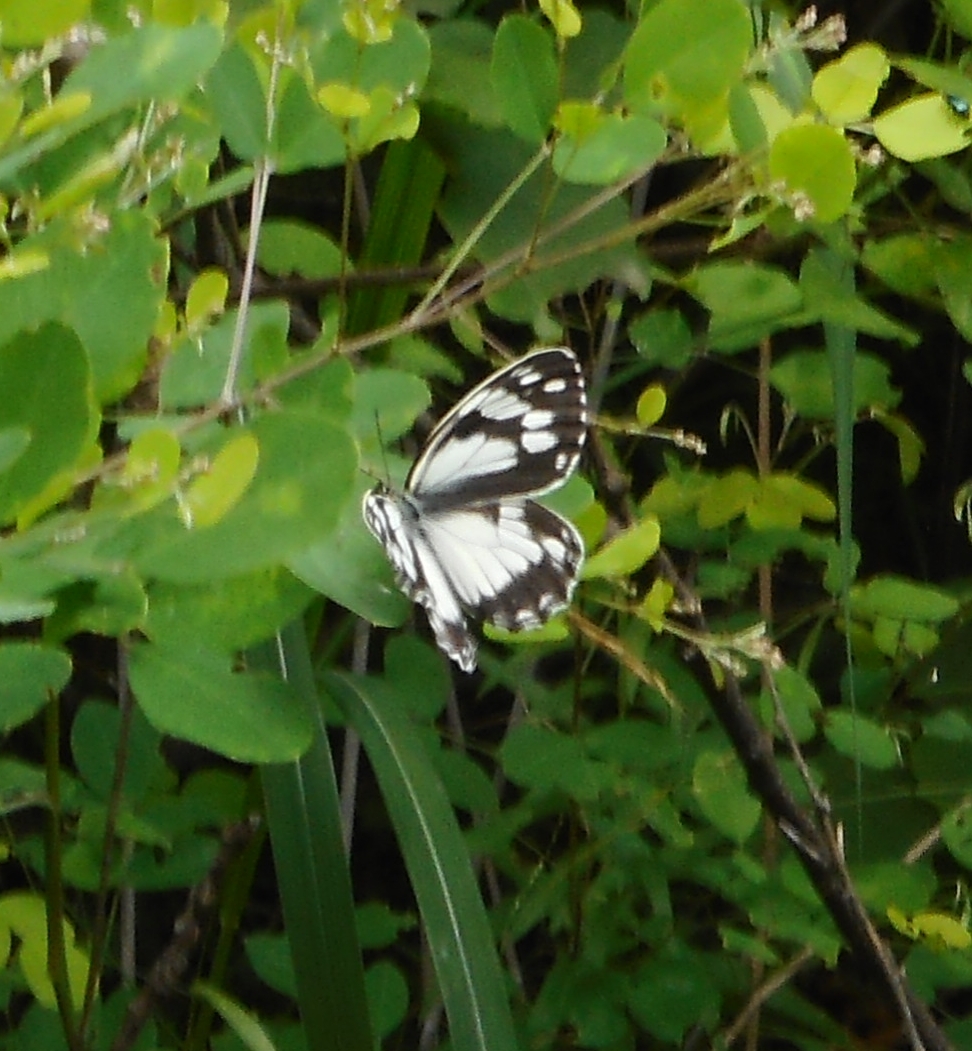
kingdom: Animalia
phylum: Arthropoda
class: Insecta
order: Lepidoptera
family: Nymphalidae
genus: Melanargia
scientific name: Melanargia halimede
